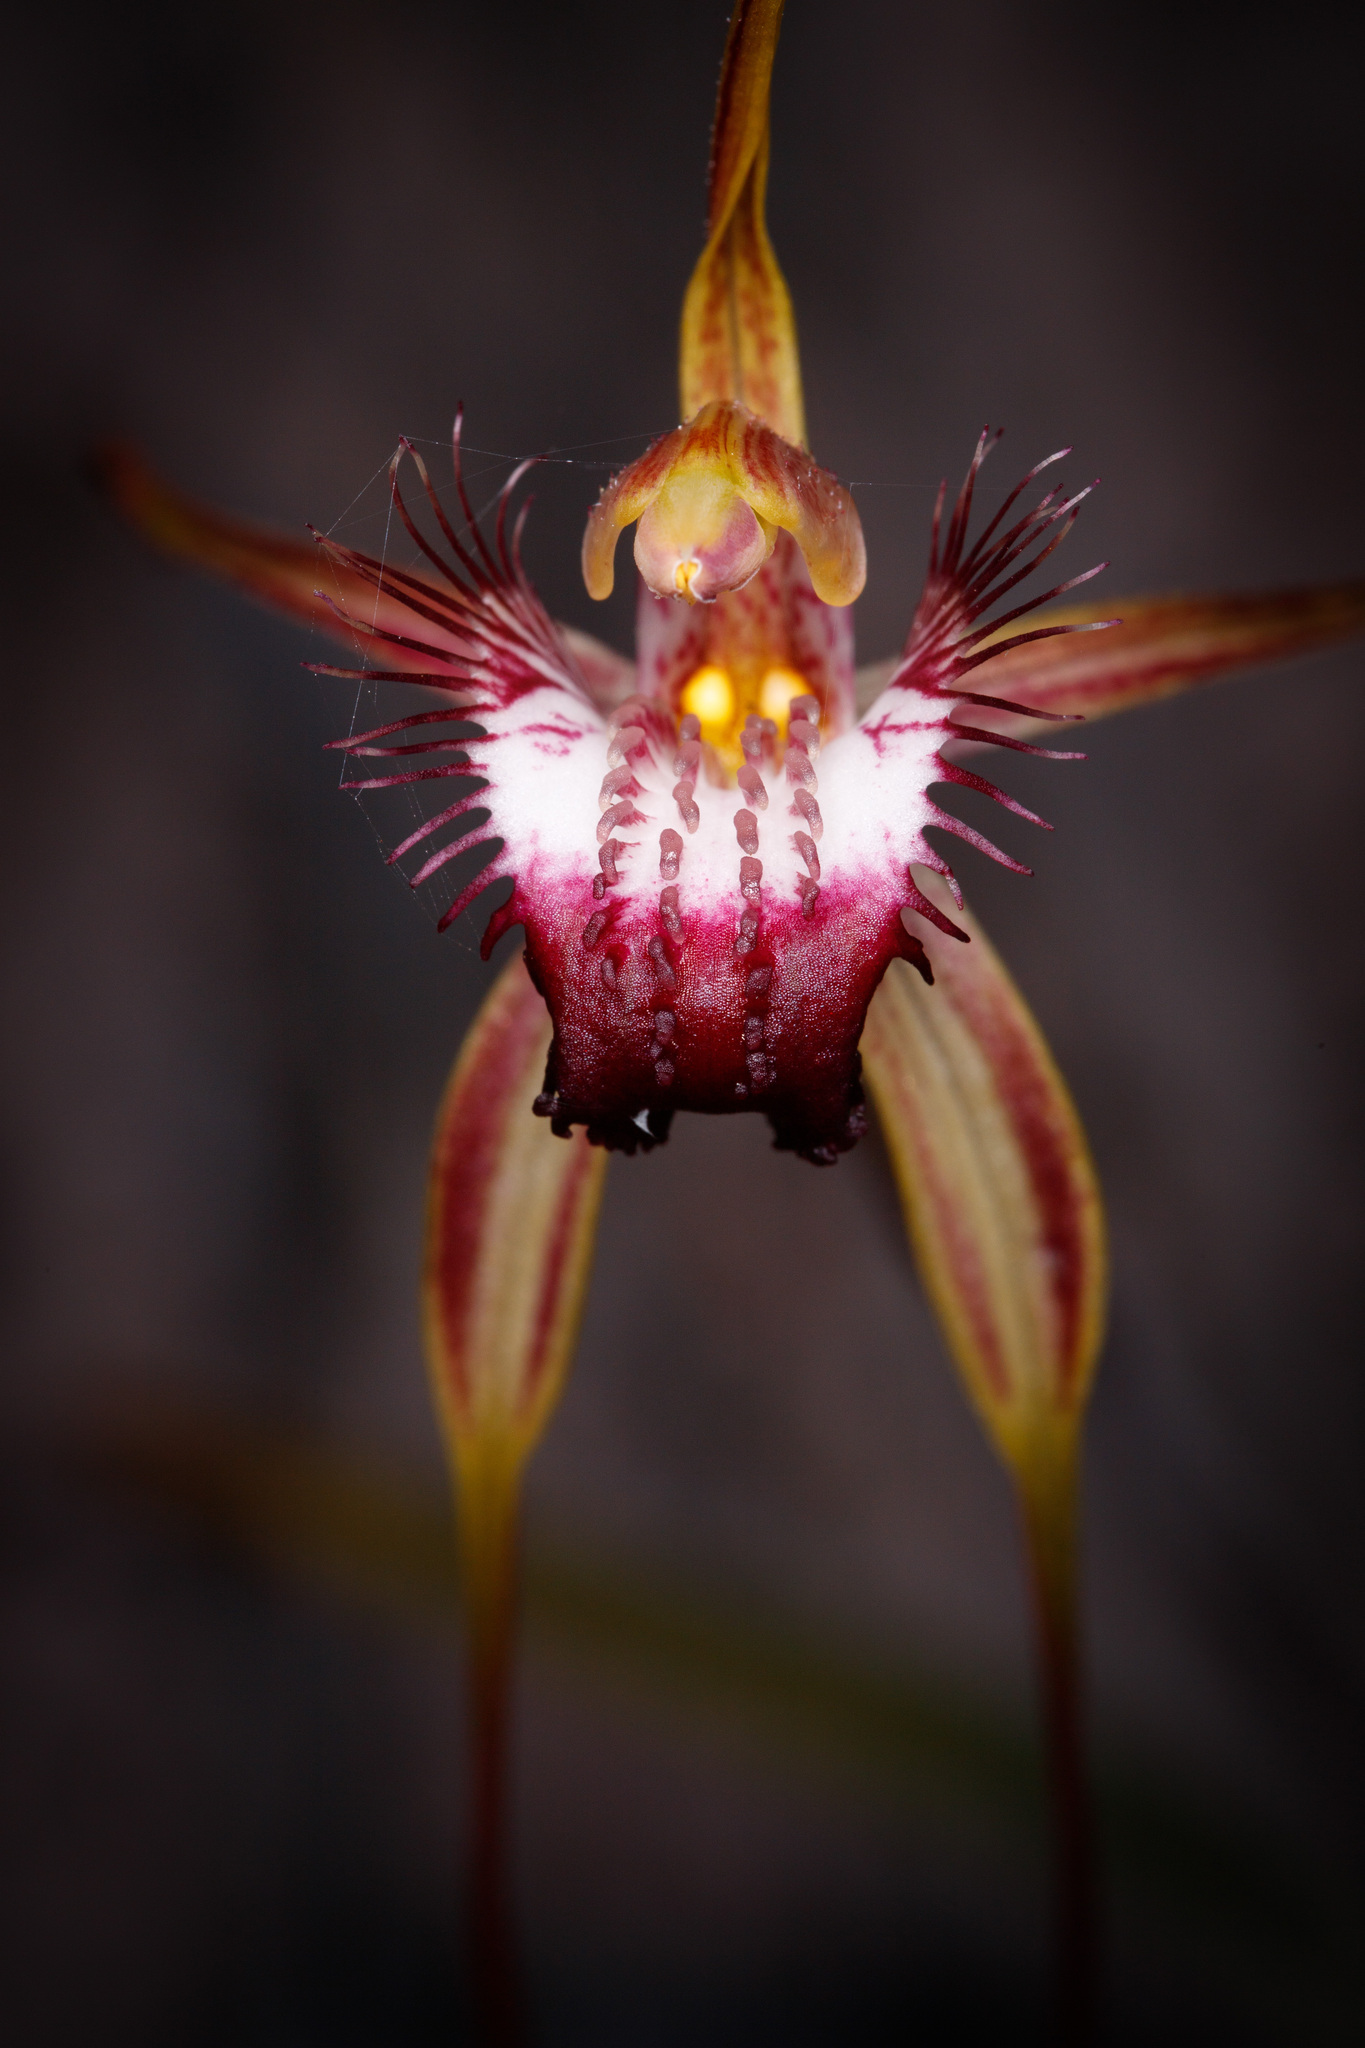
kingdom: Plantae
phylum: Tracheophyta
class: Liliopsida
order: Asparagales
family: Orchidaceae
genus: Caladenia
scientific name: Caladenia heberleana
